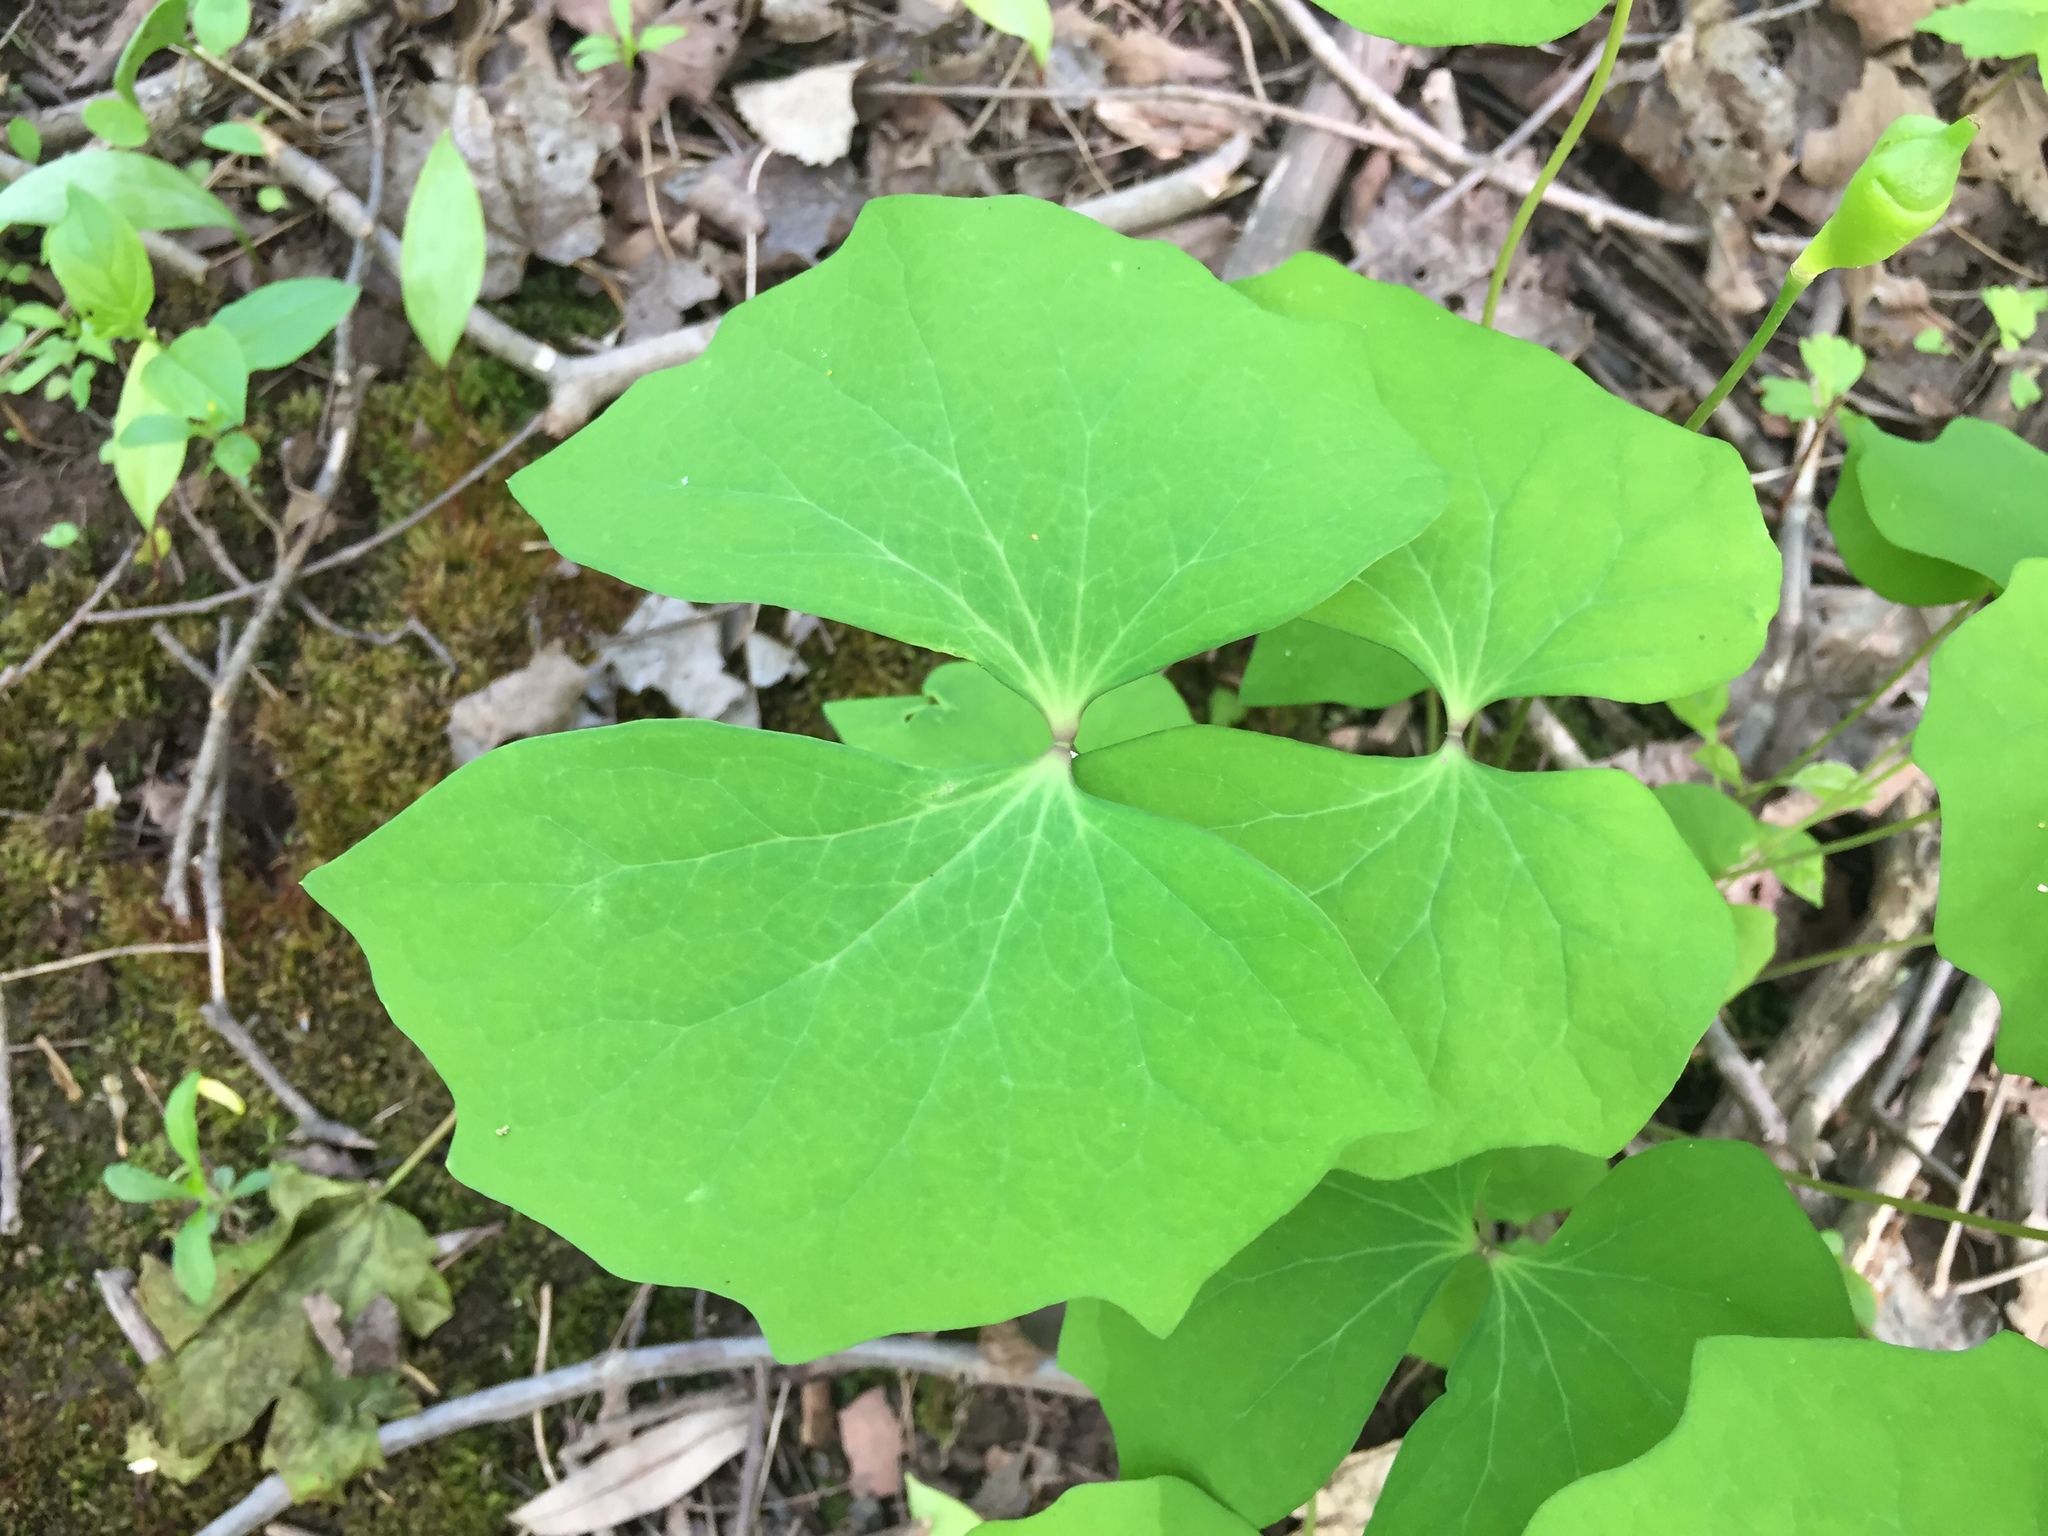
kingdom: Plantae
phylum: Tracheophyta
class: Magnoliopsida
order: Ranunculales
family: Berberidaceae
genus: Jeffersonia
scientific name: Jeffersonia diphylla
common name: Rheumatism-root
